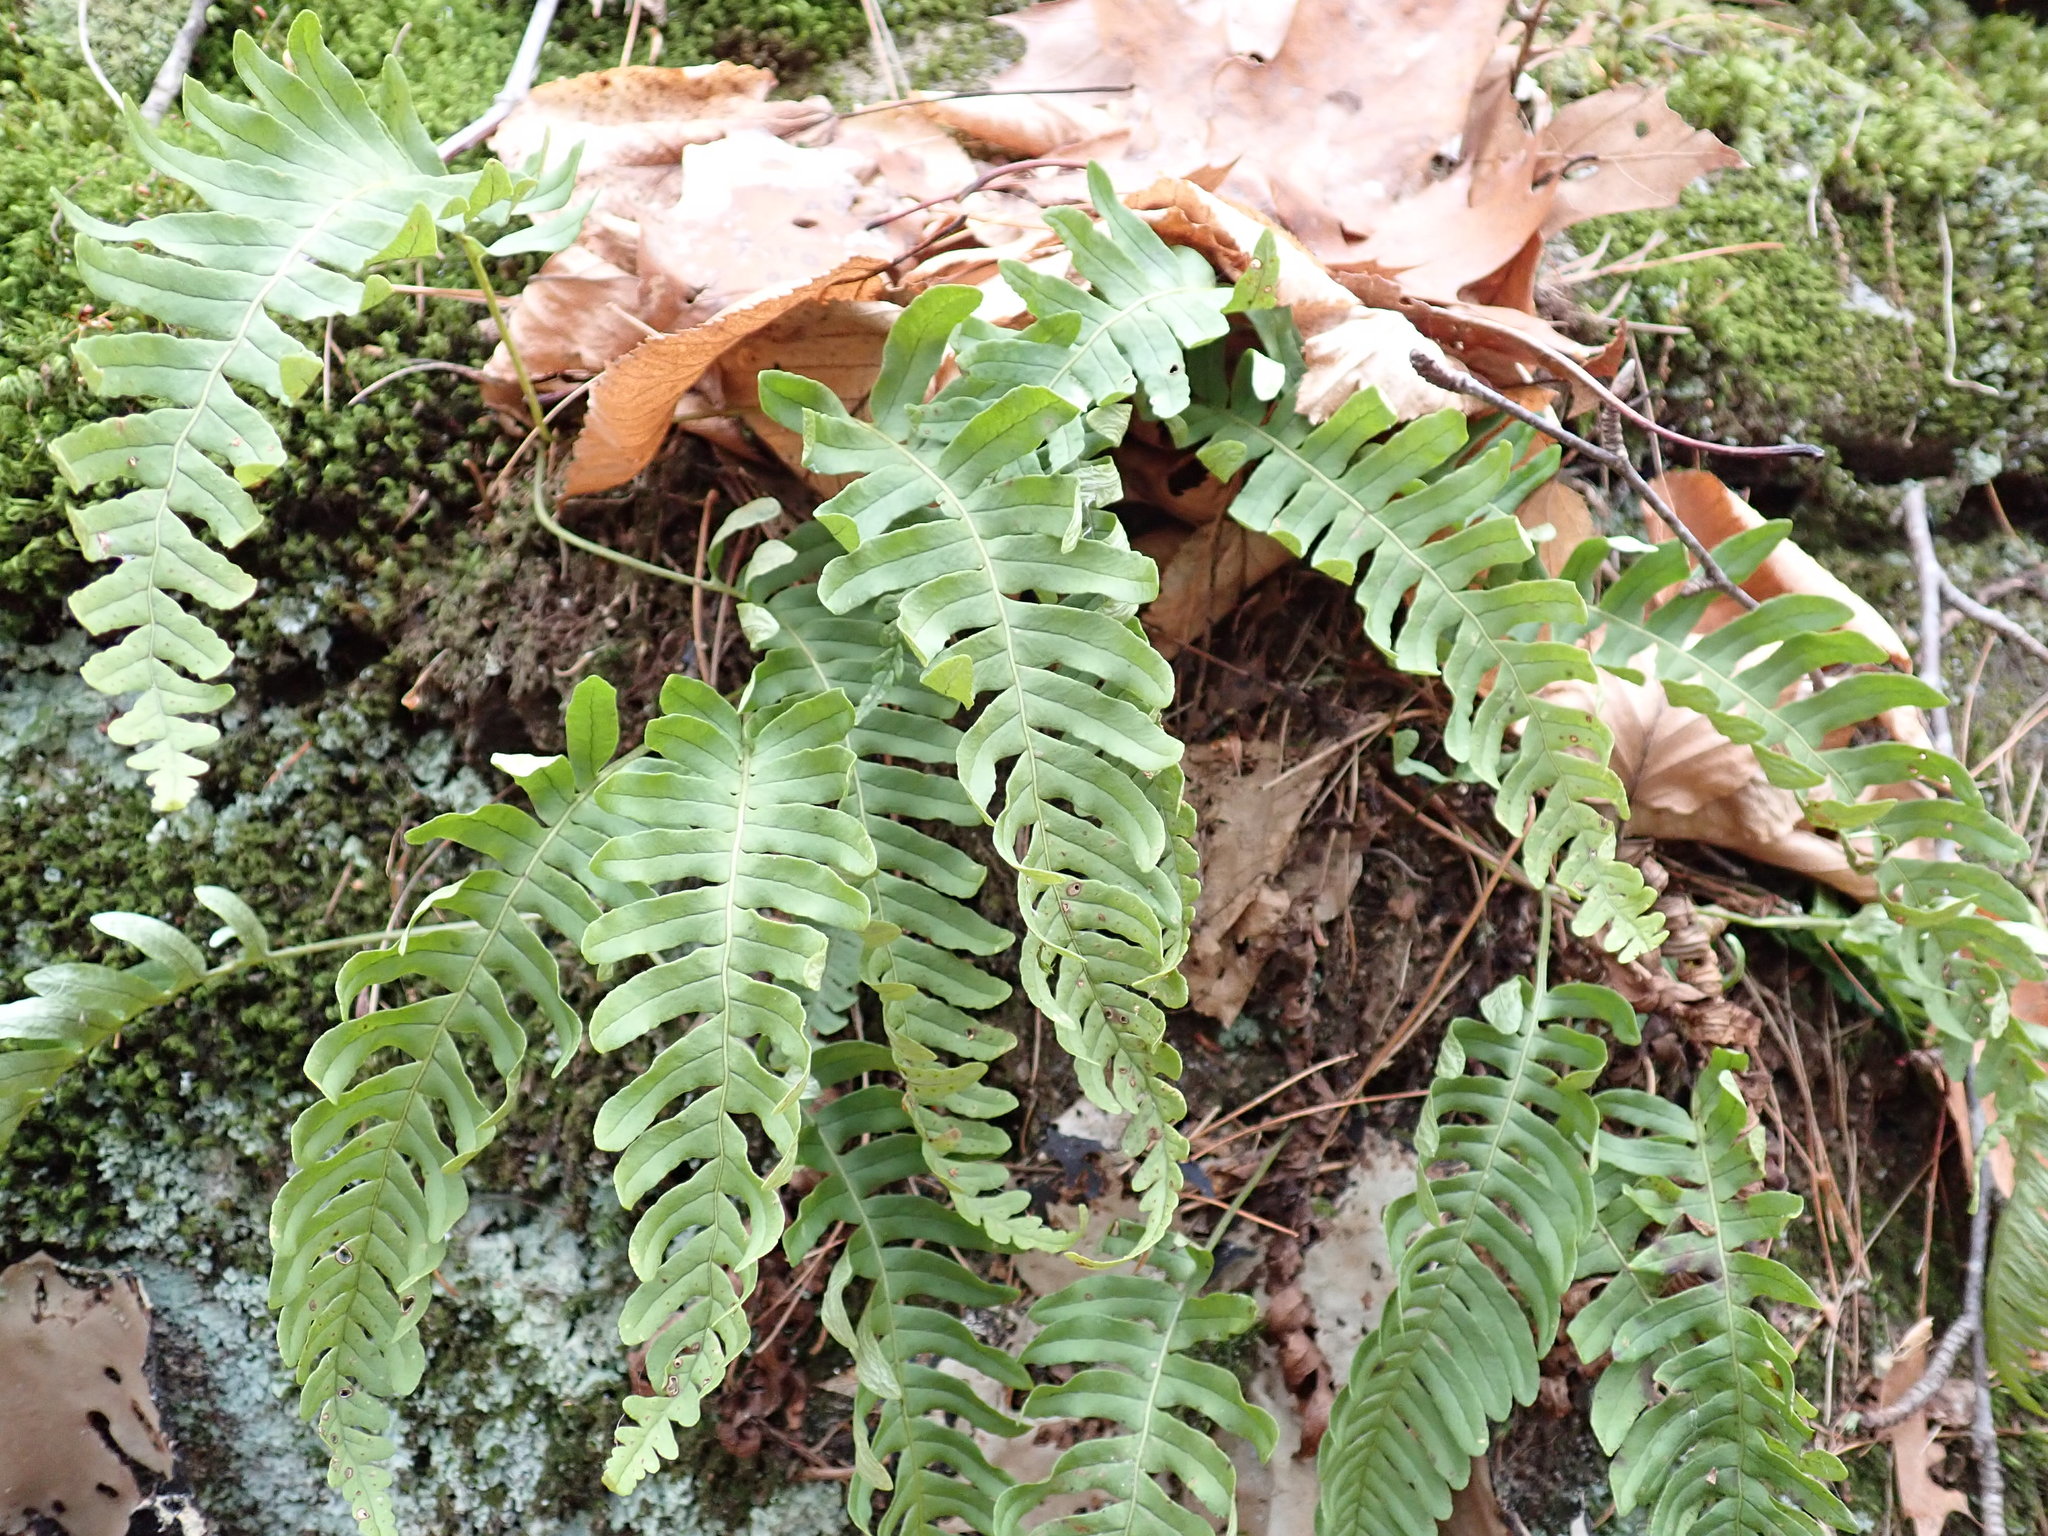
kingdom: Plantae
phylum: Tracheophyta
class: Polypodiopsida
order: Polypodiales
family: Polypodiaceae
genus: Polypodium
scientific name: Polypodium virginianum
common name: American wall fern
